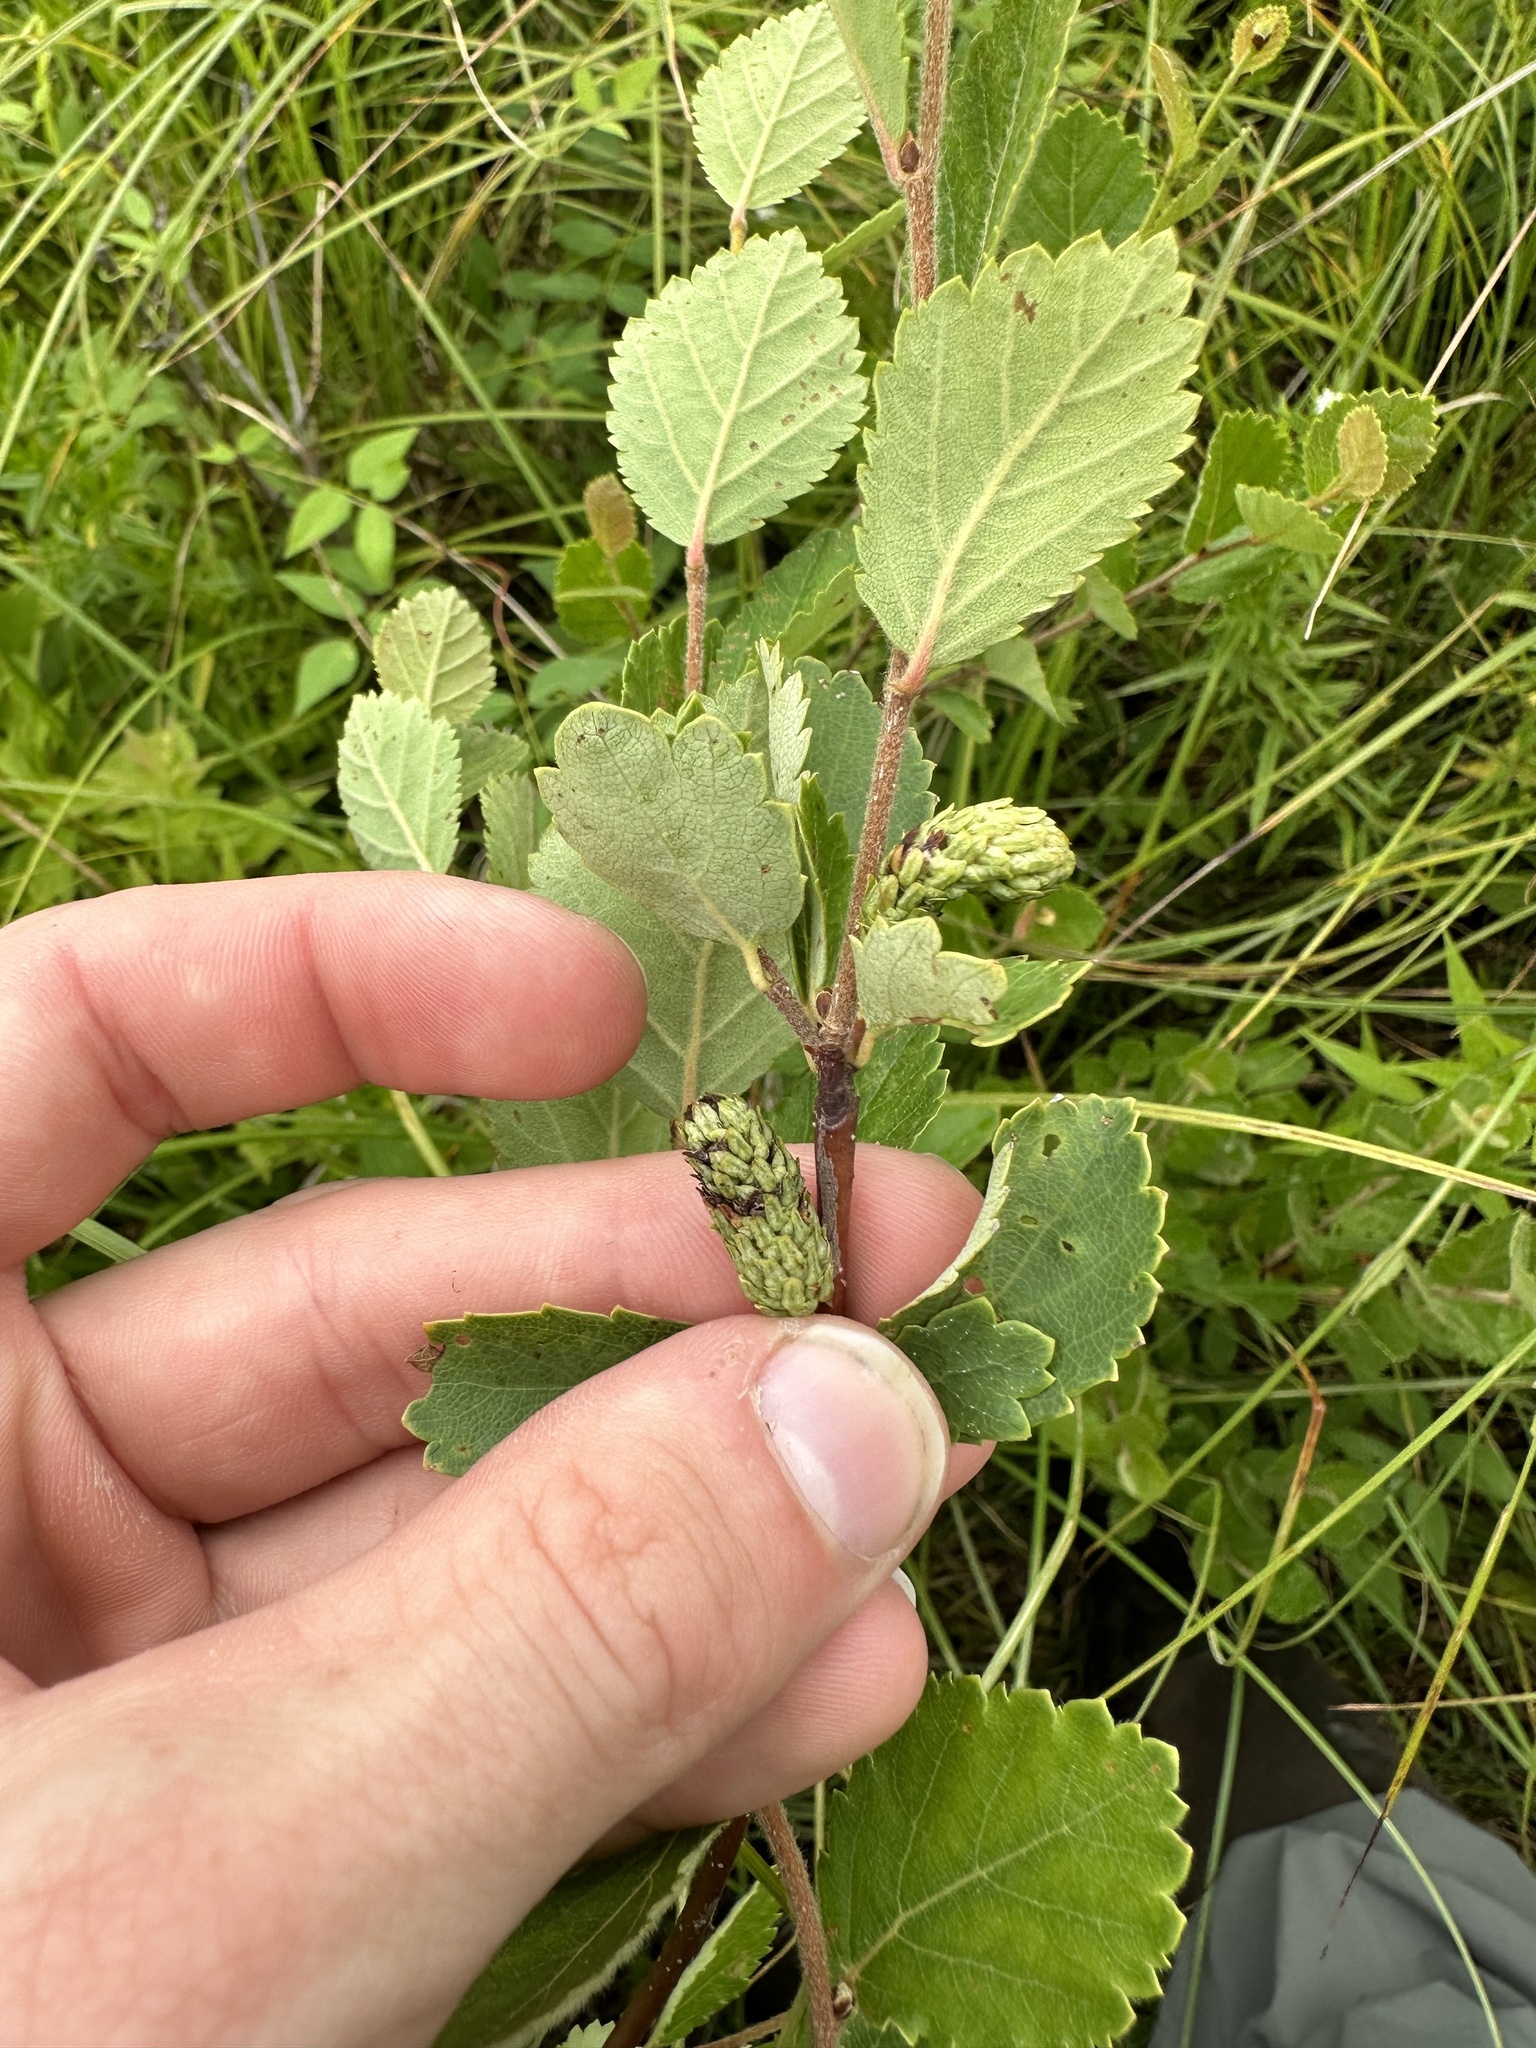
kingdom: Plantae
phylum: Tracheophyta
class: Magnoliopsida
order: Fagales
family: Betulaceae
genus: Betula
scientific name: Betula pumila
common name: Bog birch
